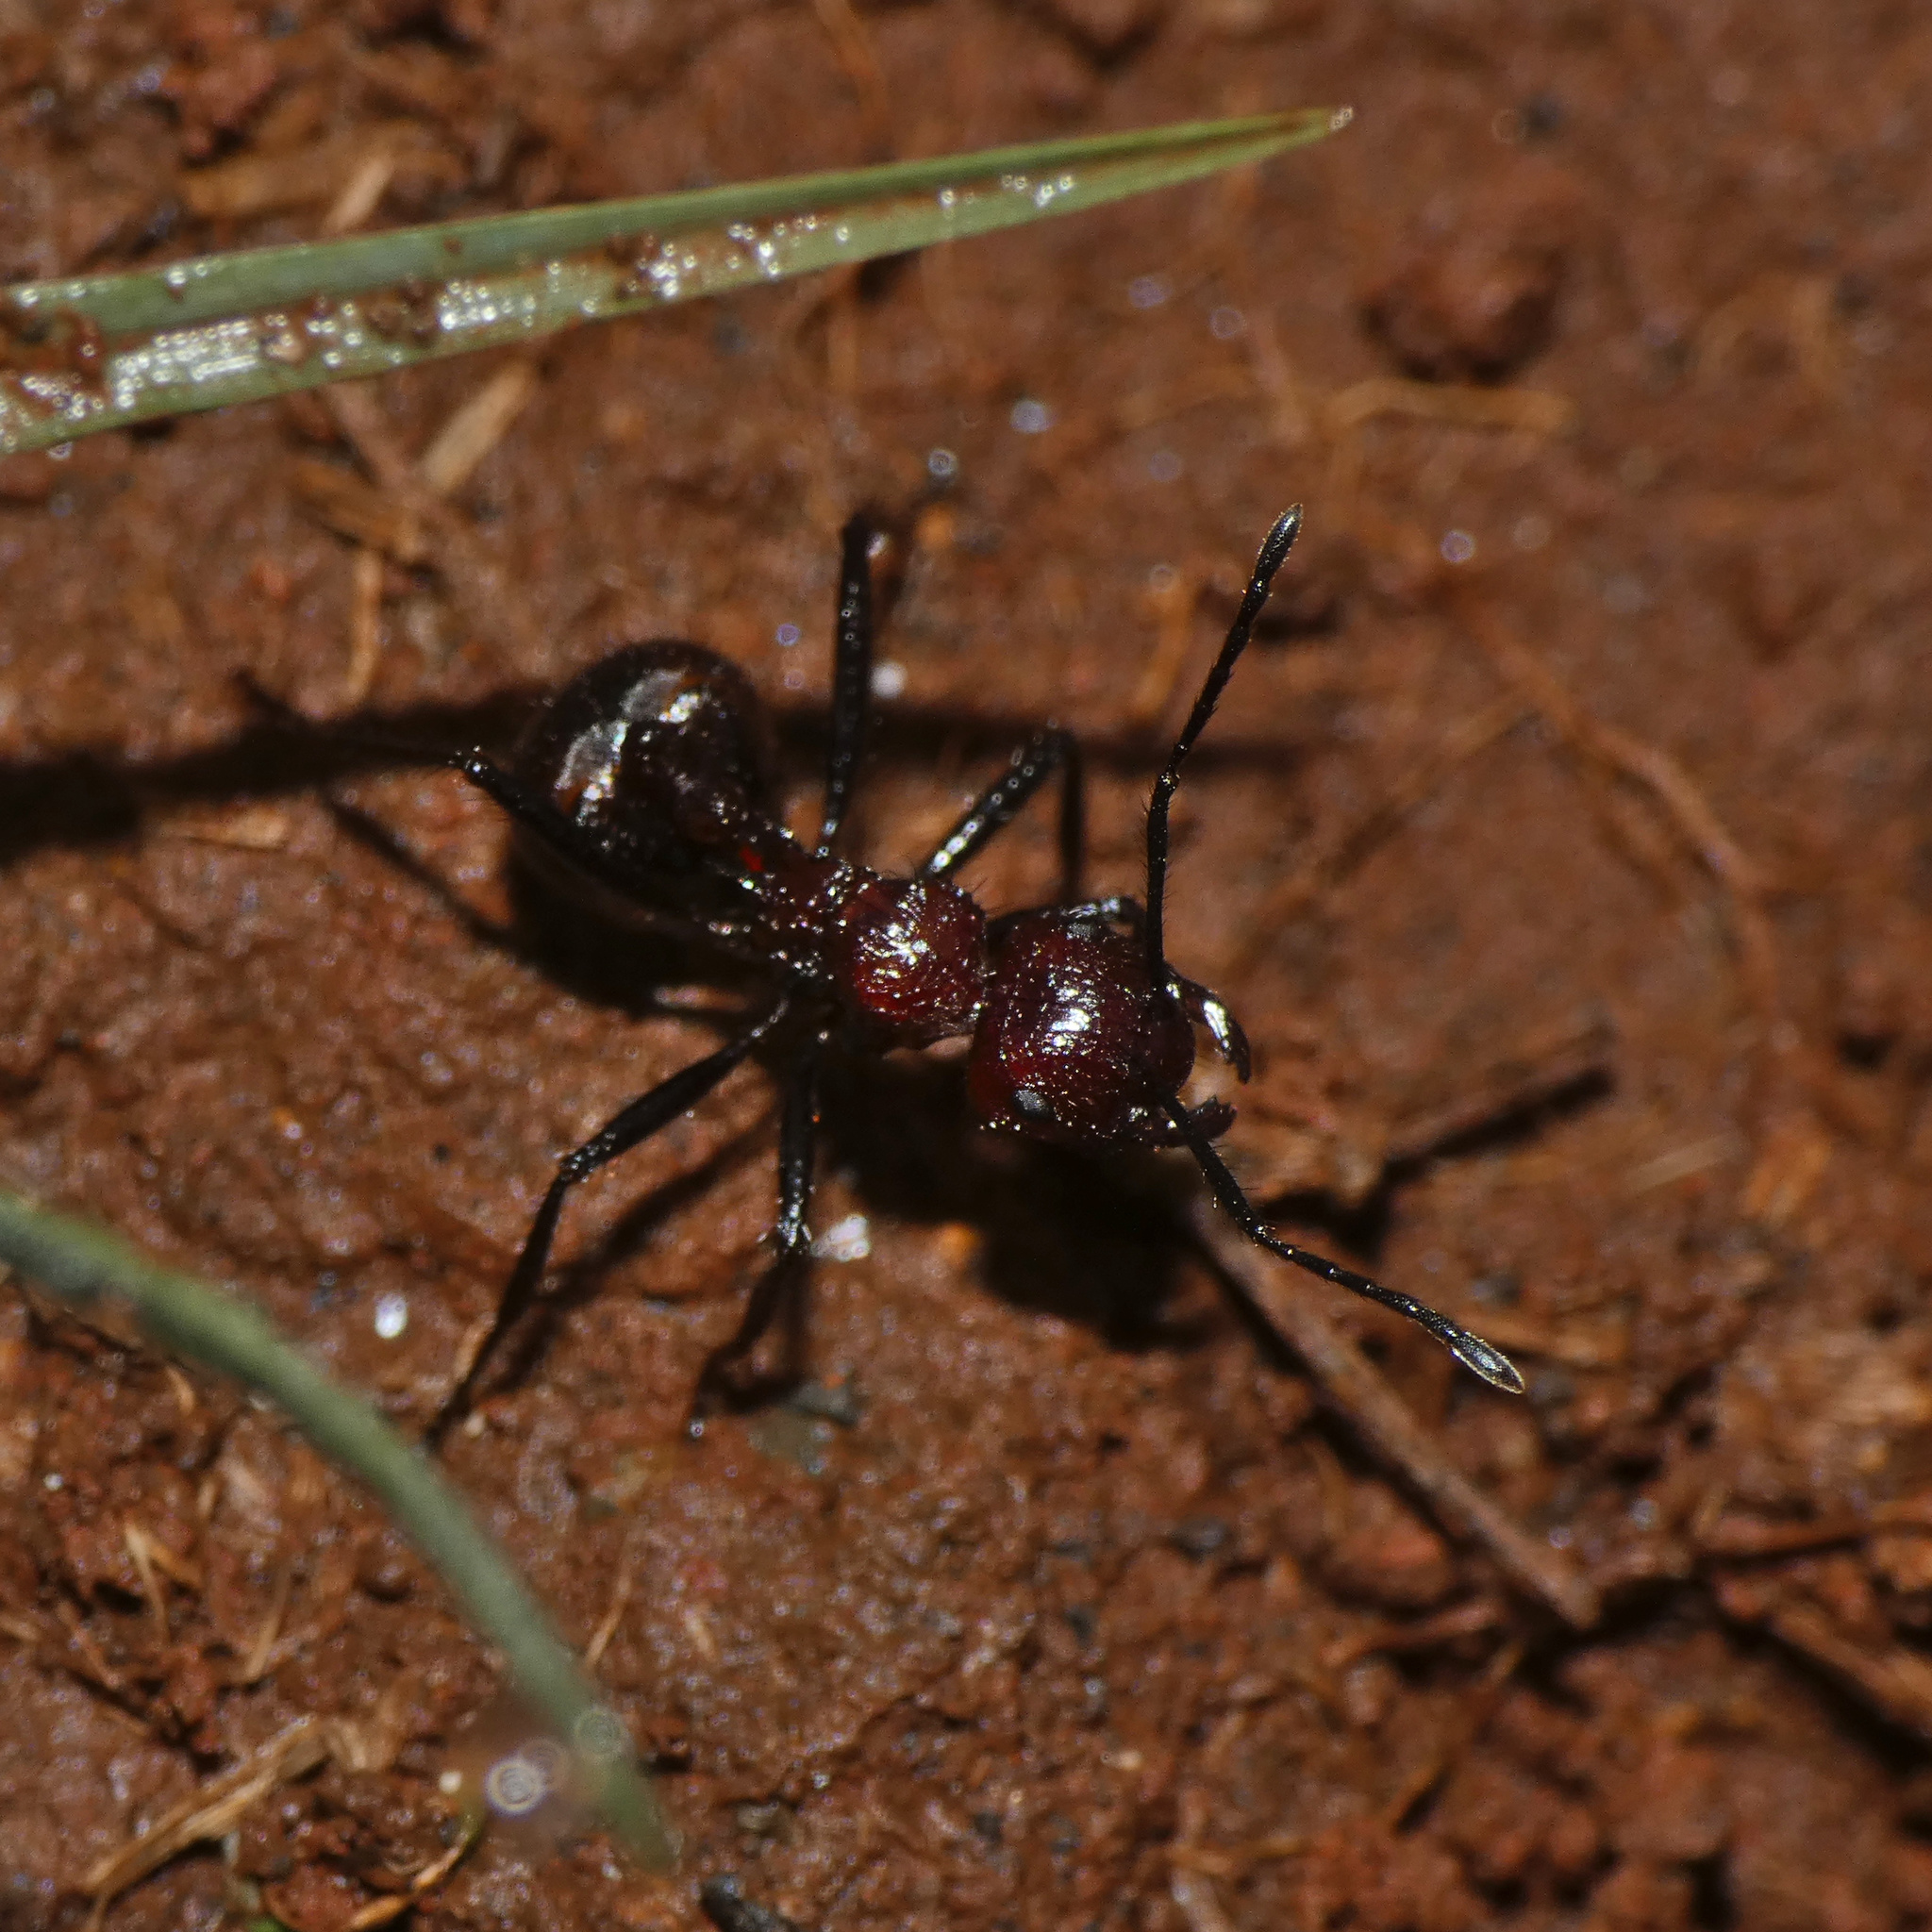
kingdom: Animalia
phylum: Arthropoda
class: Insecta
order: Hymenoptera
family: Formicidae
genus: Myrmicaria
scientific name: Myrmicaria natalensis
